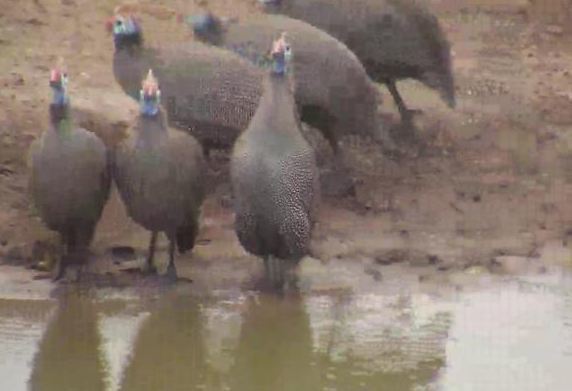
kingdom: Animalia
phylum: Chordata
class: Aves
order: Galliformes
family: Numididae
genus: Numida
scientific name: Numida meleagris
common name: Helmeted guineafowl
